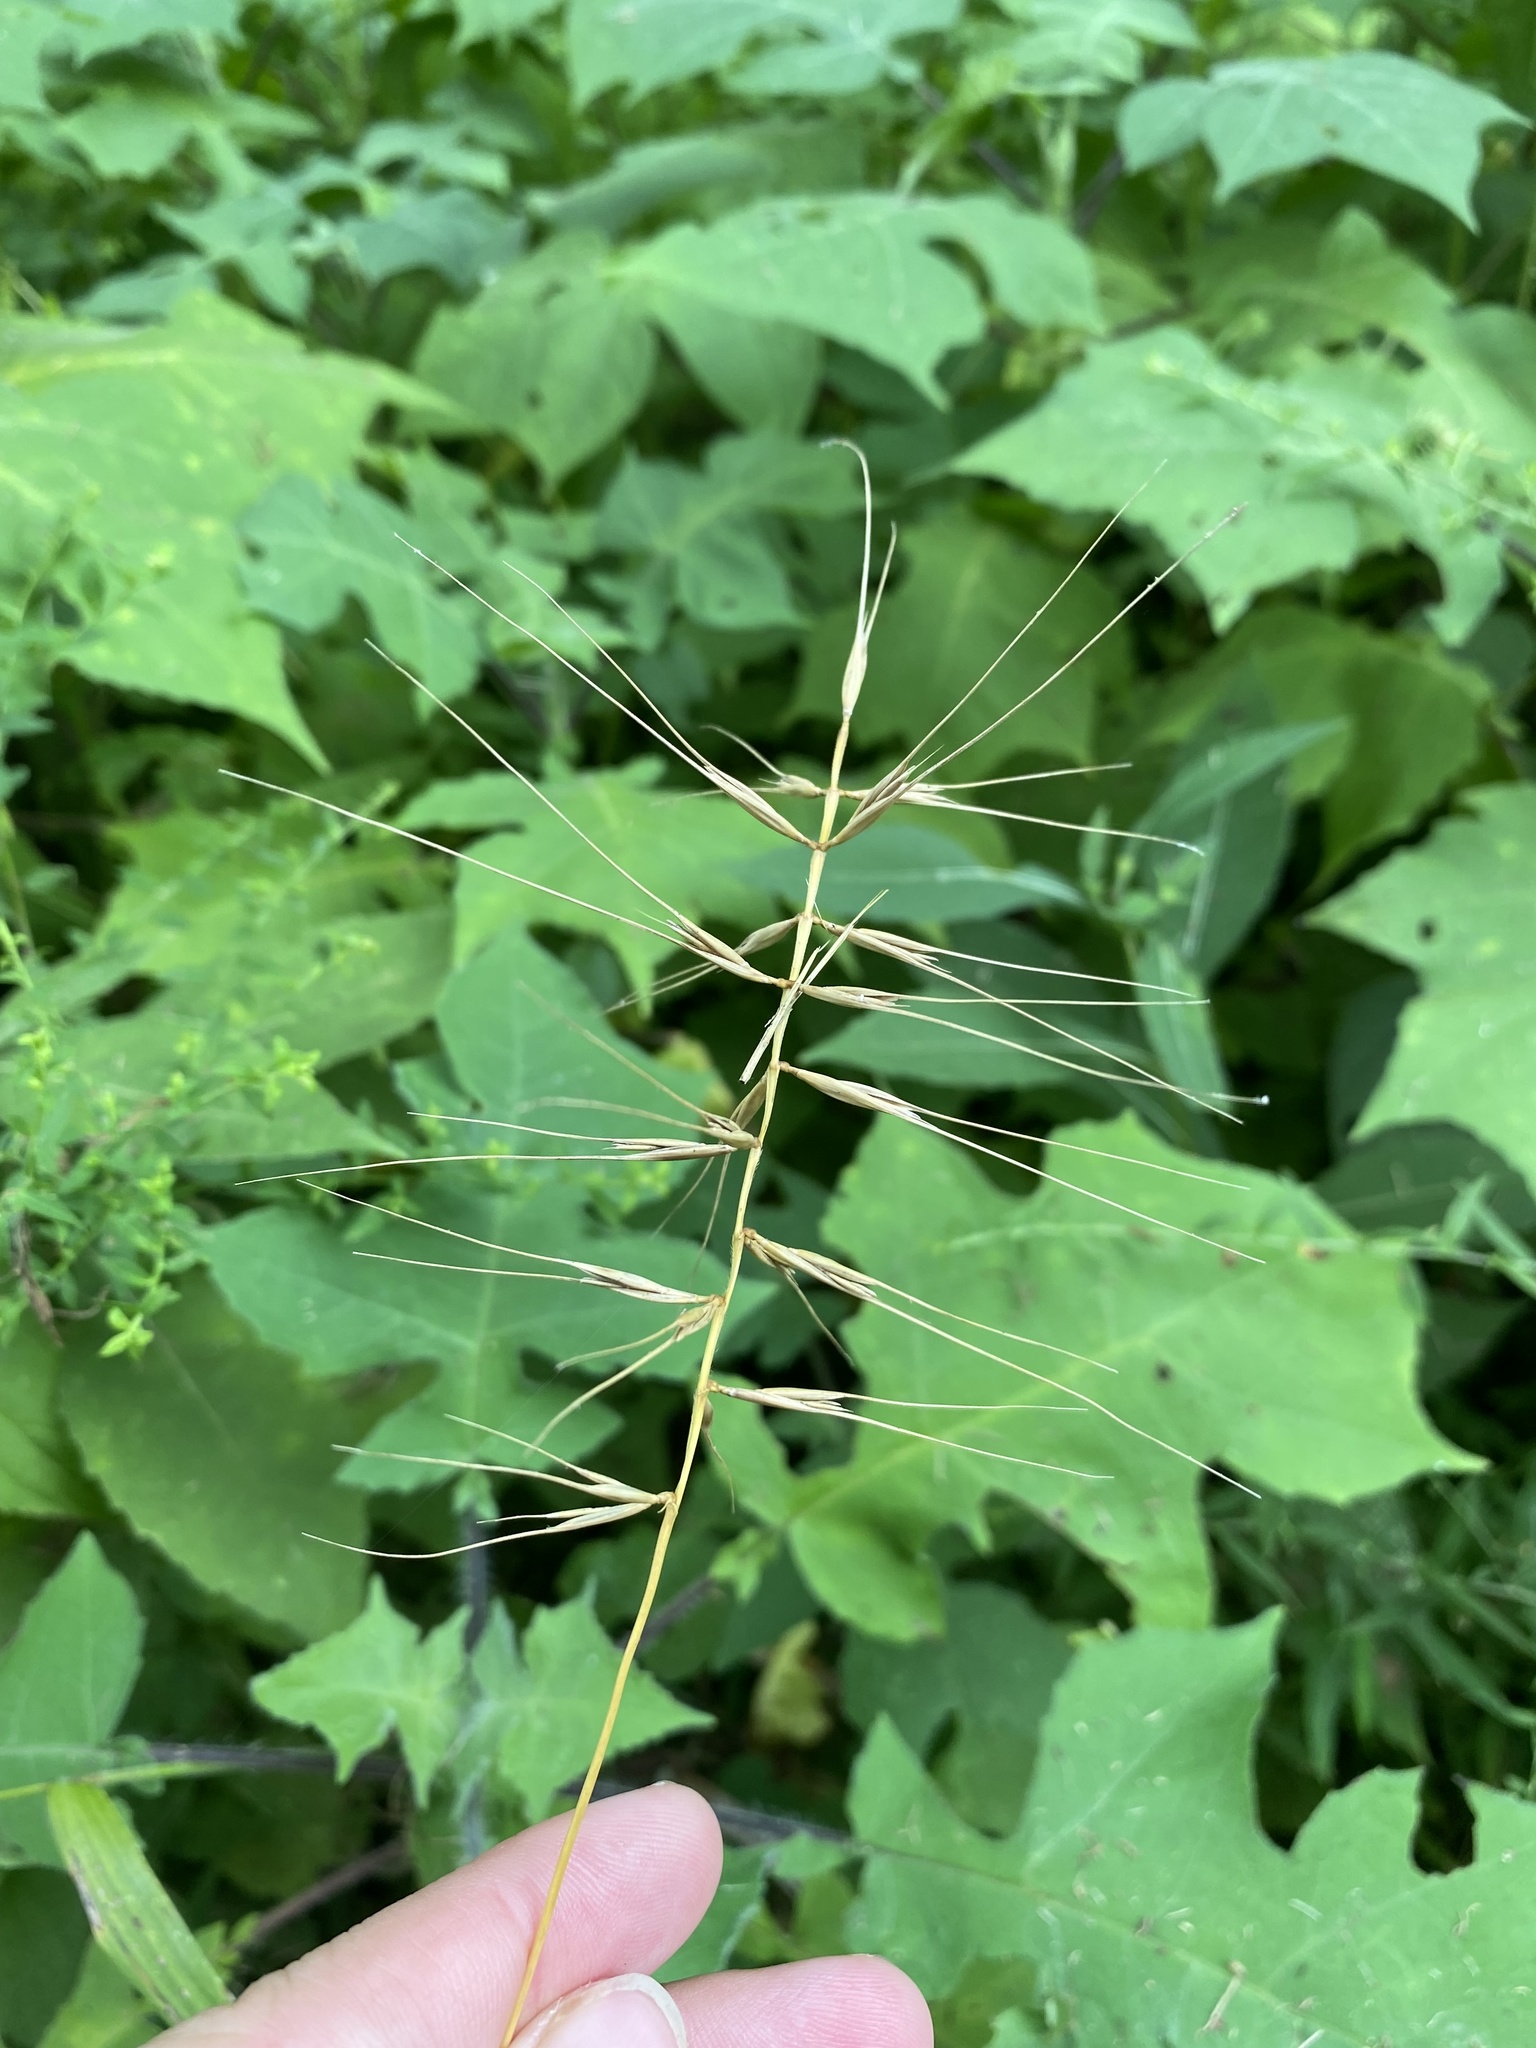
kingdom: Plantae
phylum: Tracheophyta
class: Liliopsida
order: Poales
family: Poaceae
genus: Elymus
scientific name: Elymus hystrix
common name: Bottlebrush grass
